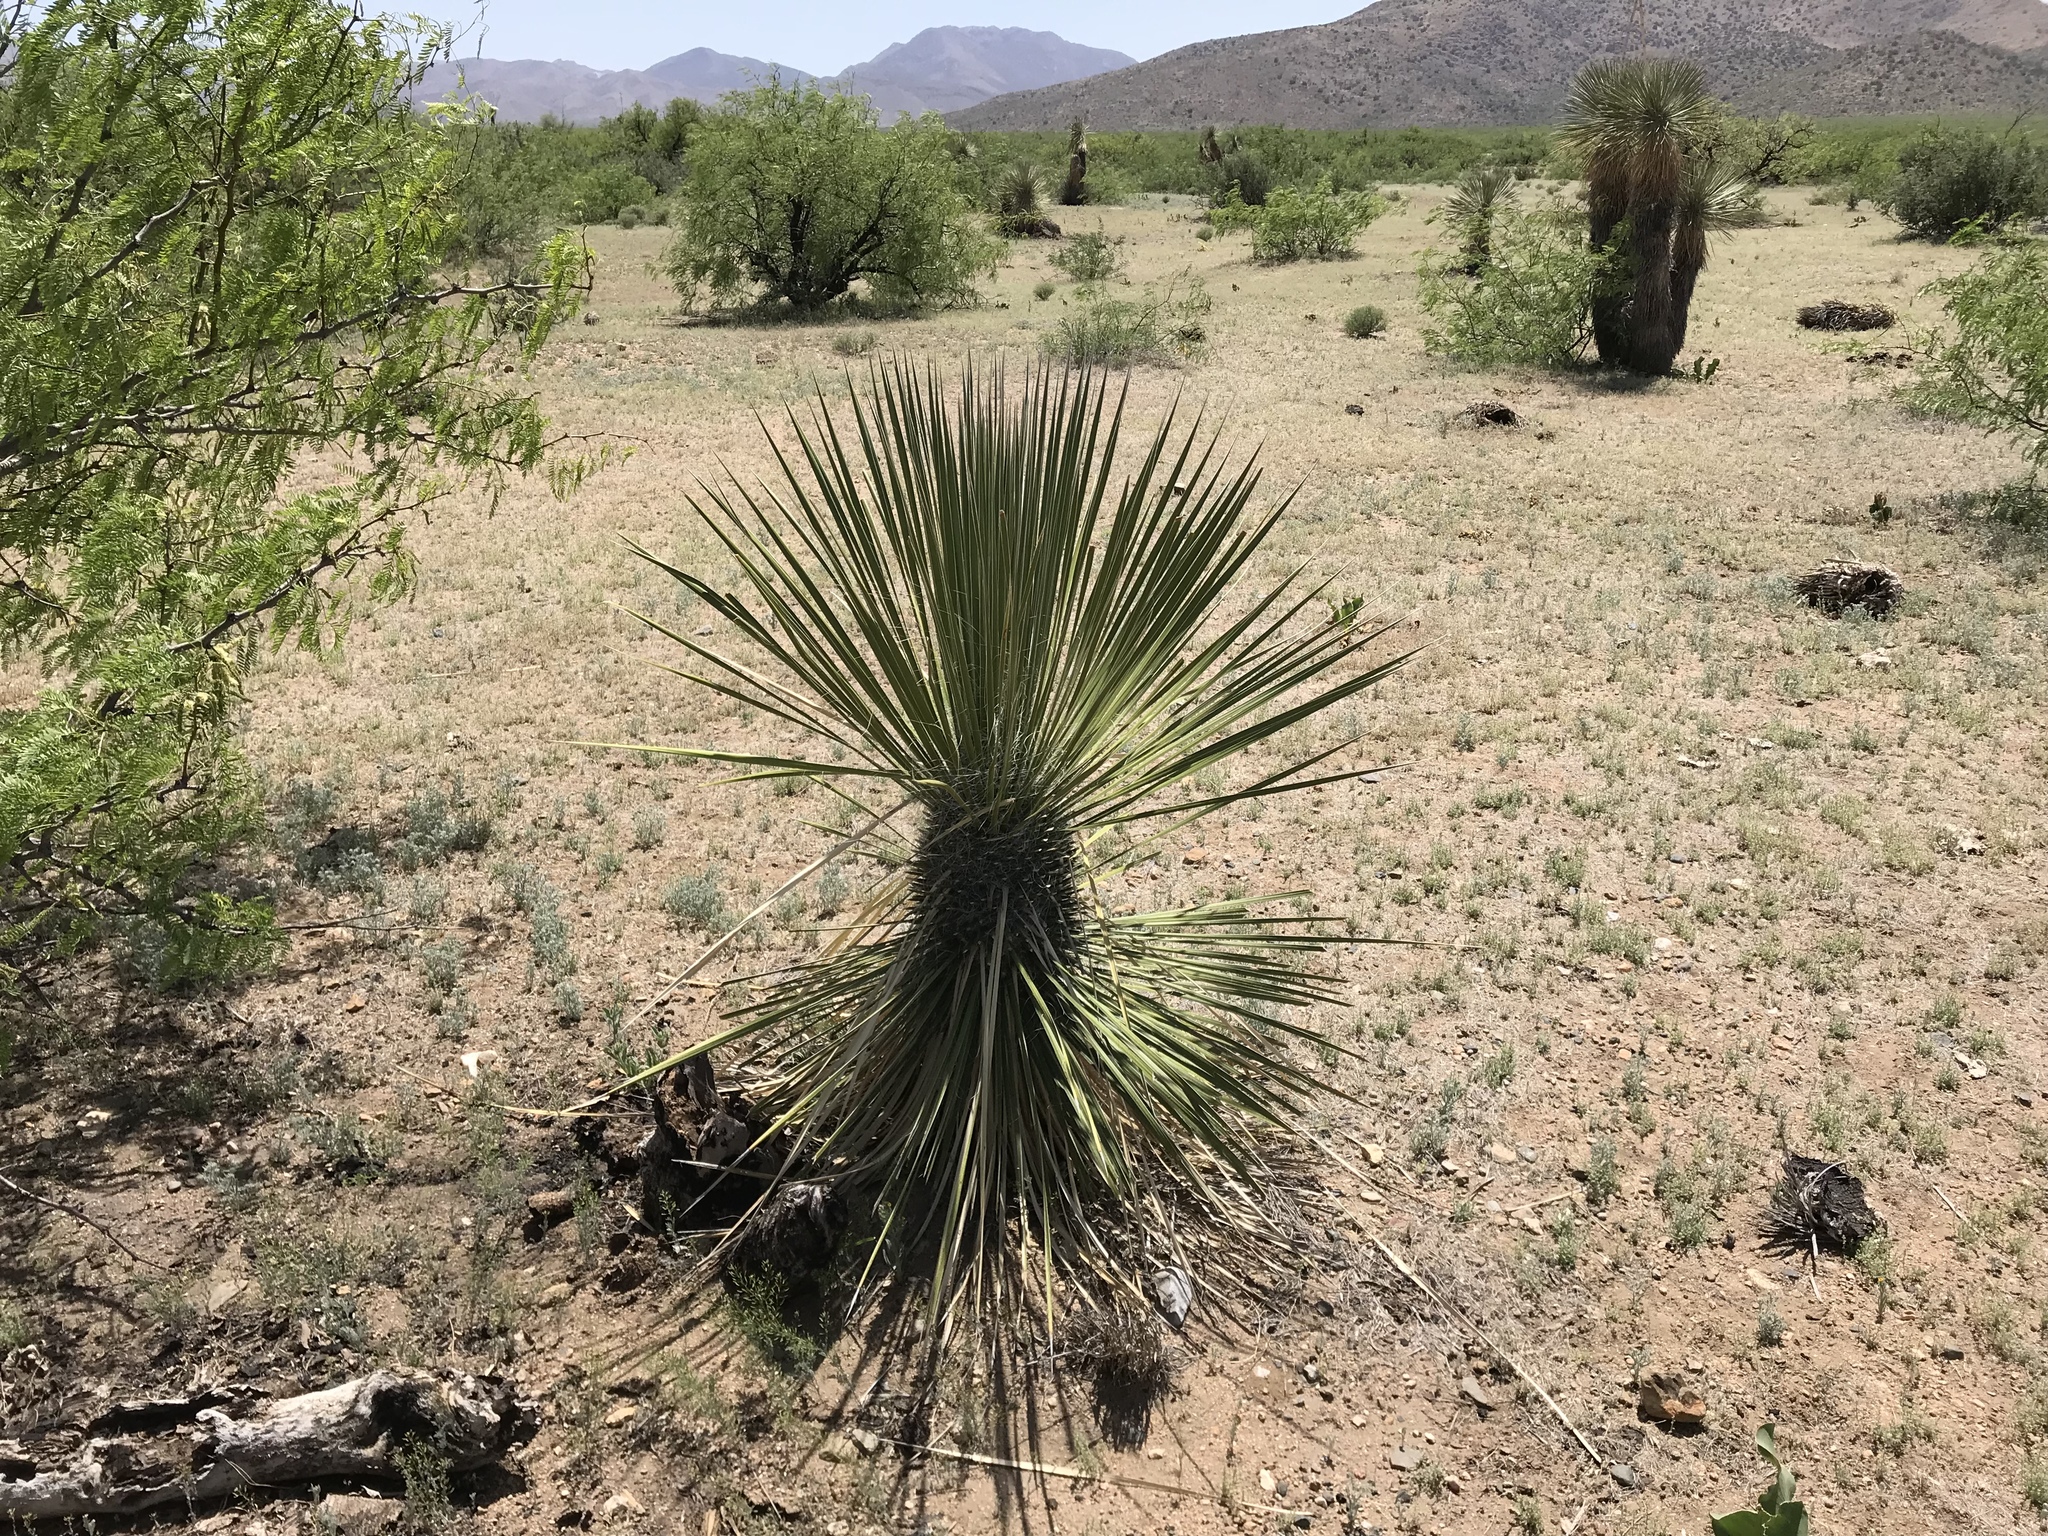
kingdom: Plantae
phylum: Tracheophyta
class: Liliopsida
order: Asparagales
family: Asparagaceae
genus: Yucca
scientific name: Yucca elata
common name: Palmella
